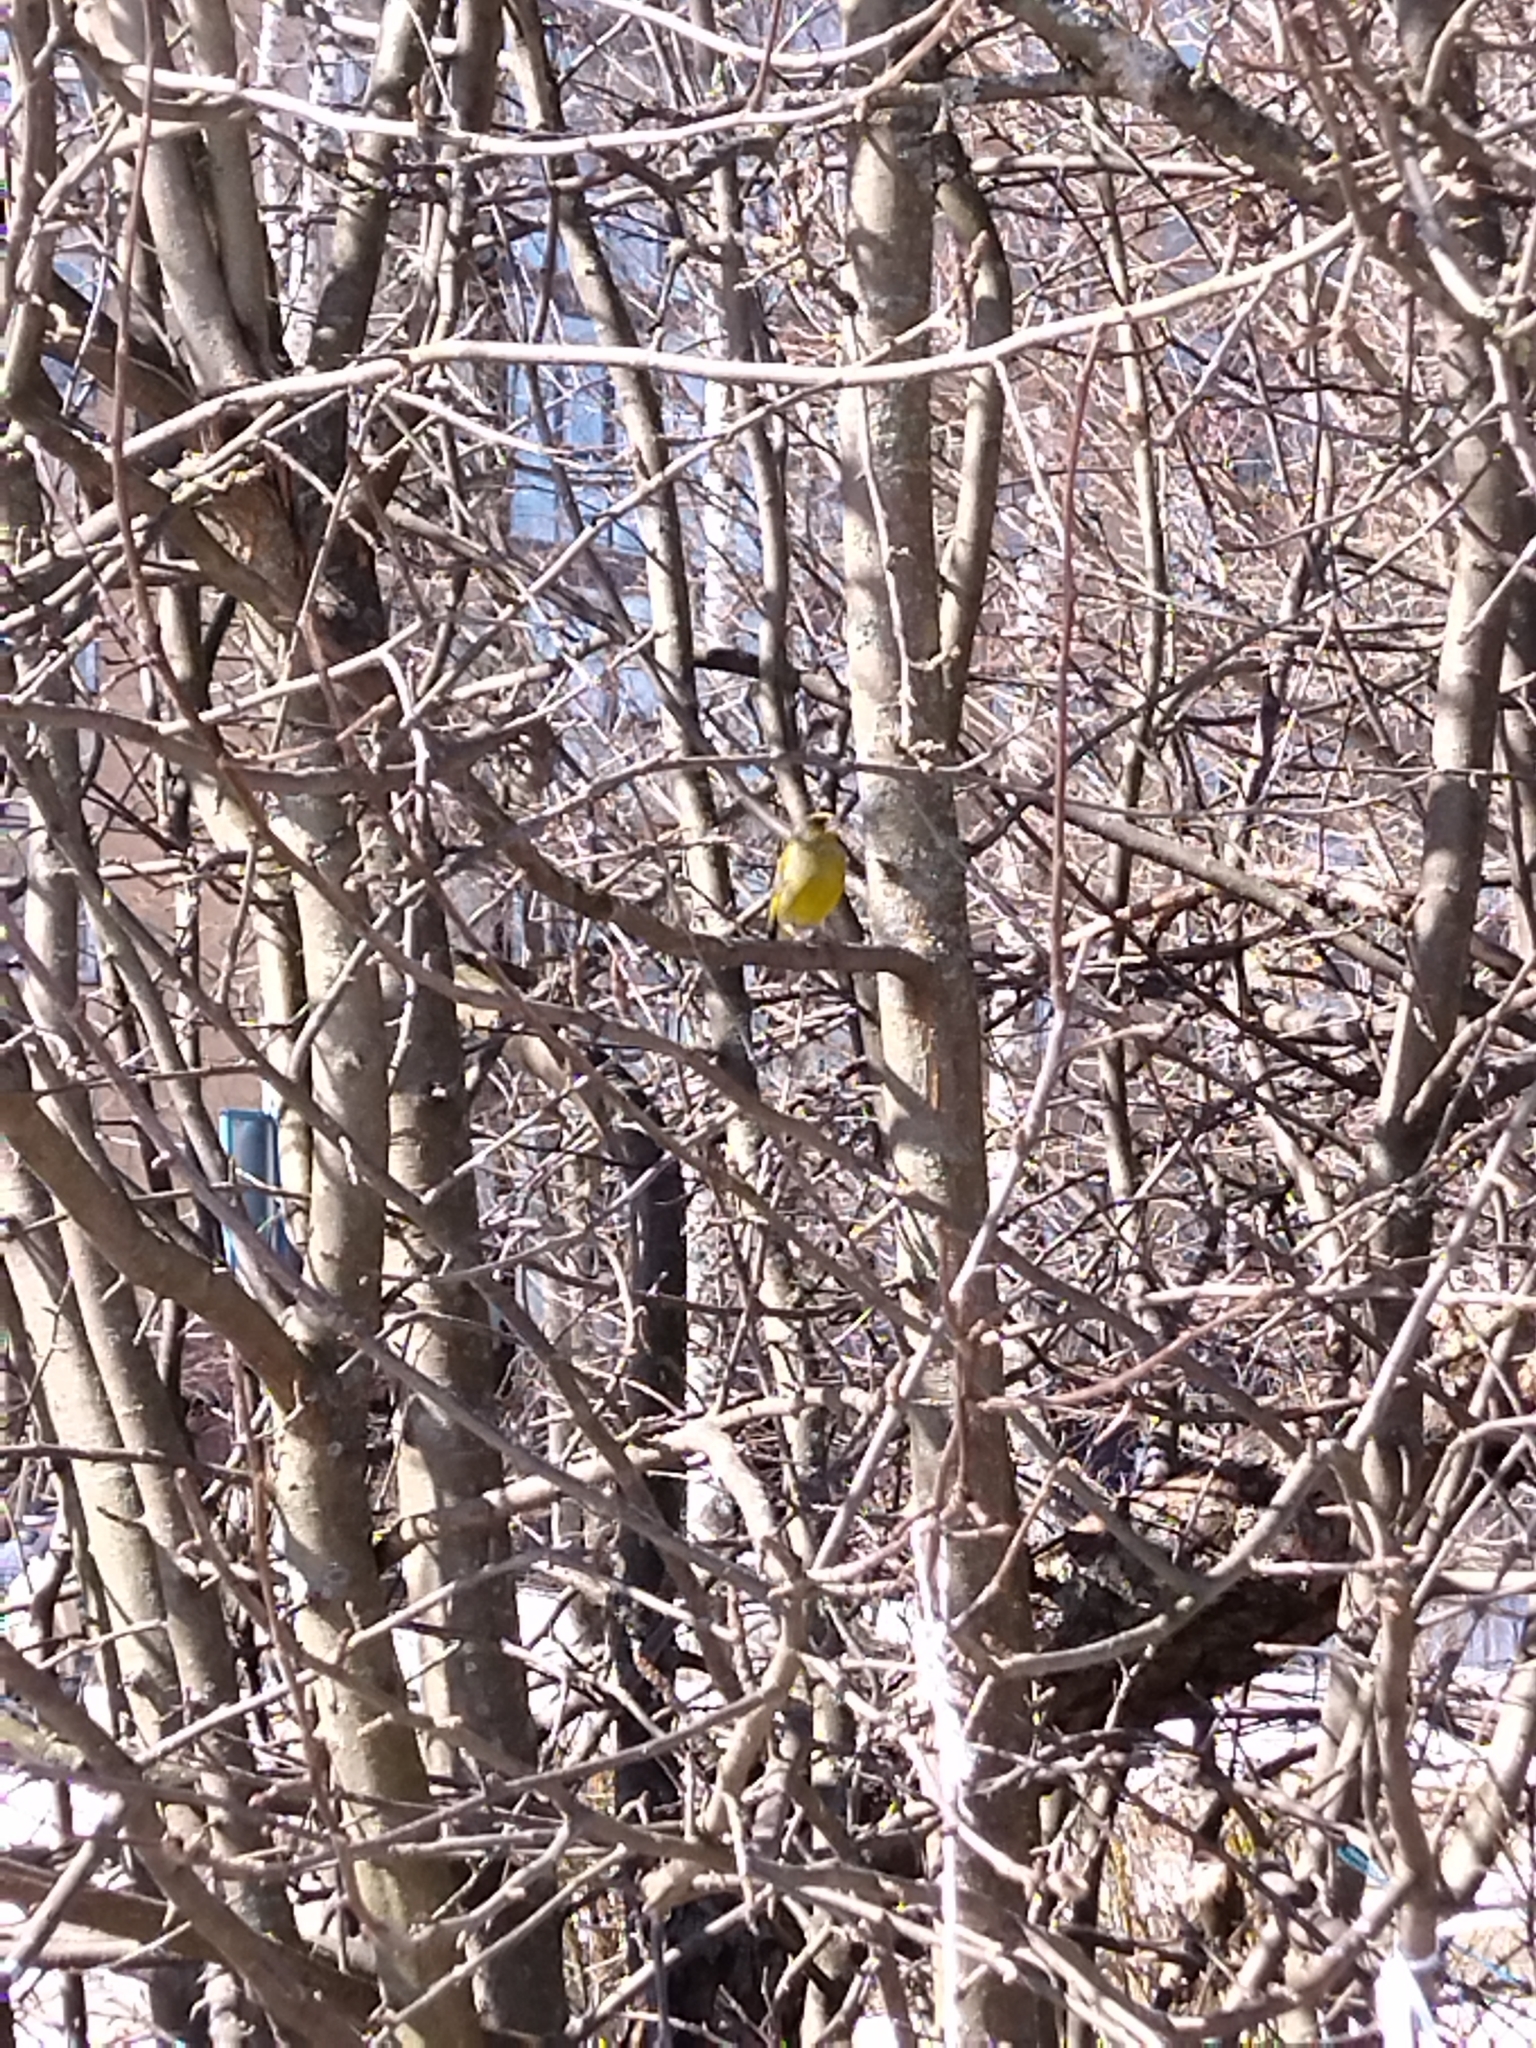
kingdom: Plantae
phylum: Tracheophyta
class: Liliopsida
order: Poales
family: Poaceae
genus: Chloris
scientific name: Chloris chloris
